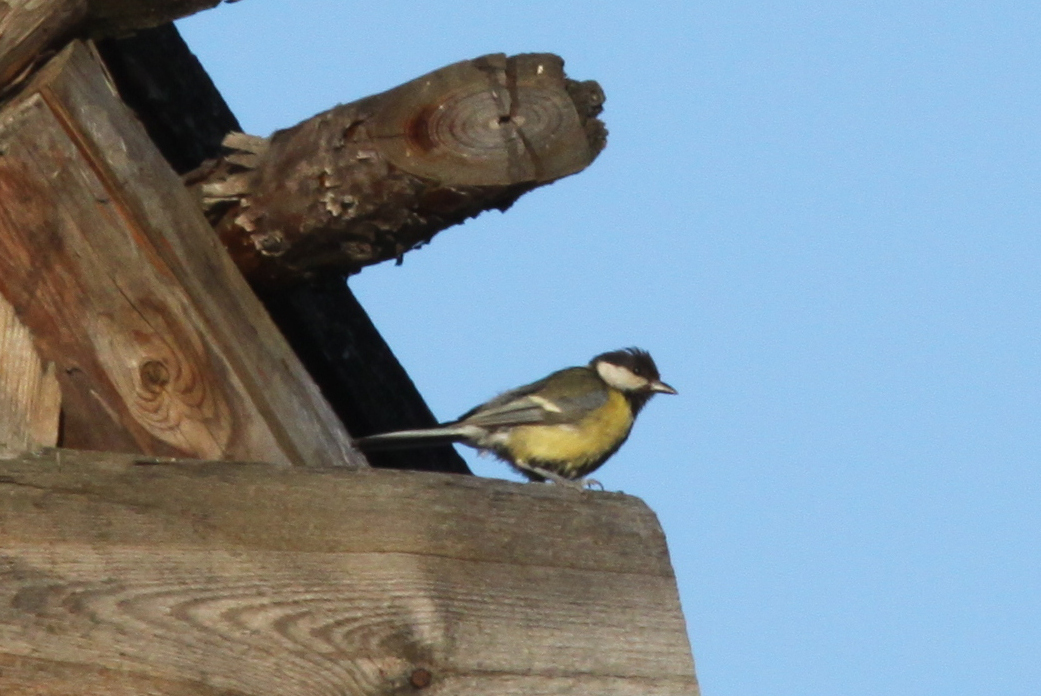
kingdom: Animalia
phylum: Chordata
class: Aves
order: Passeriformes
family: Paridae
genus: Parus
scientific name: Parus major
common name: Great tit
